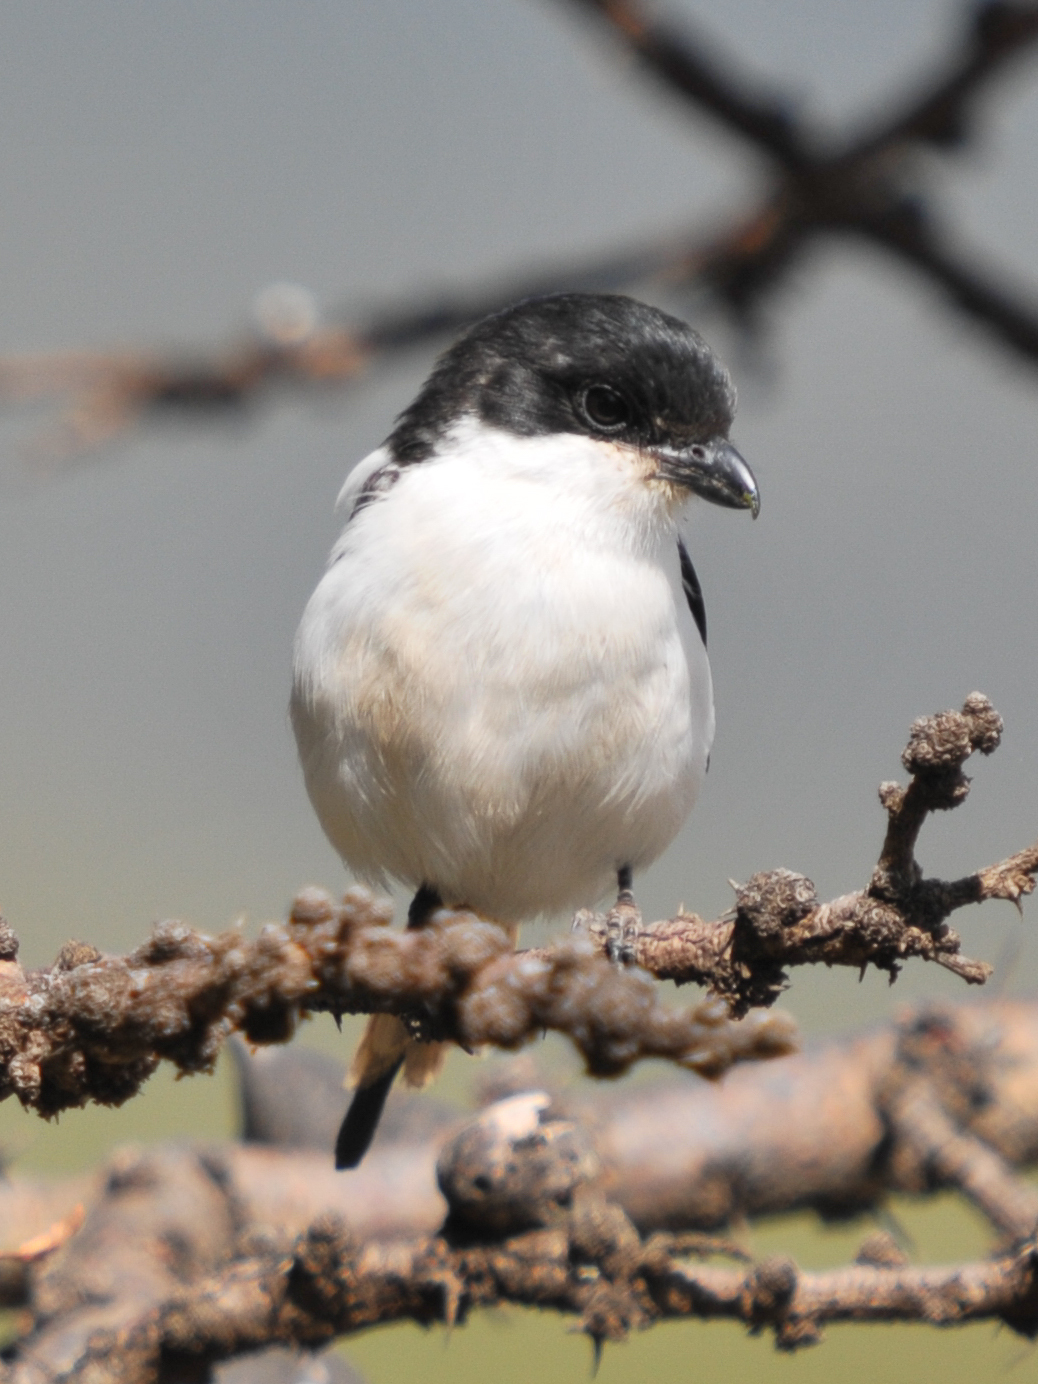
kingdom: Animalia
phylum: Chordata
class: Aves
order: Passeriformes
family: Laniidae
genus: Lanius
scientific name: Lanius humeralis
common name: Northern fiscal
